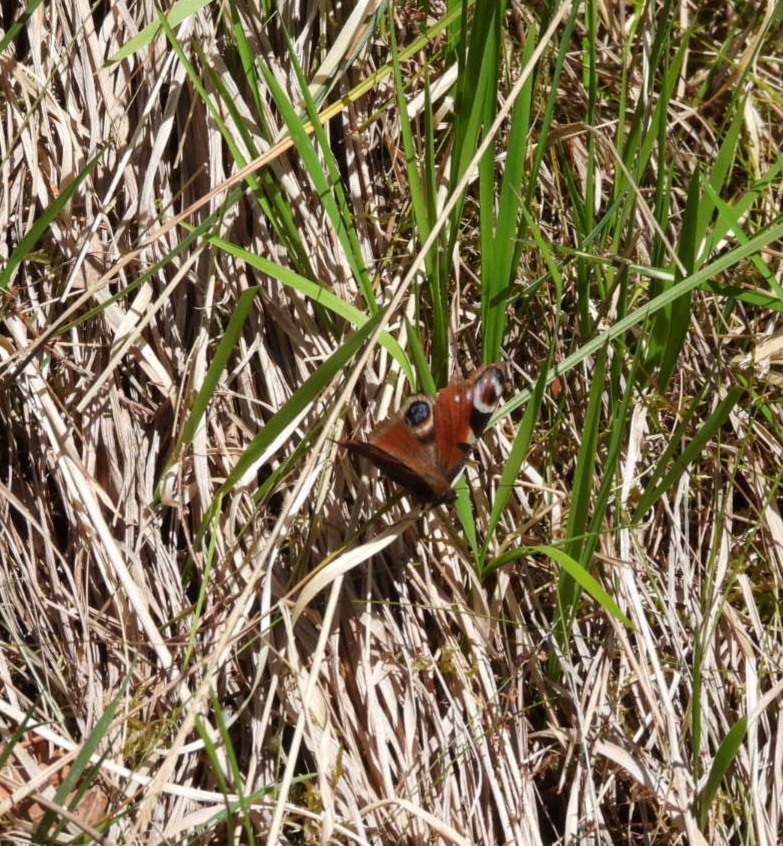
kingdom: Animalia
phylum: Arthropoda
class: Insecta
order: Lepidoptera
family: Nymphalidae
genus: Aglais
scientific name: Aglais io
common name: Peacock
